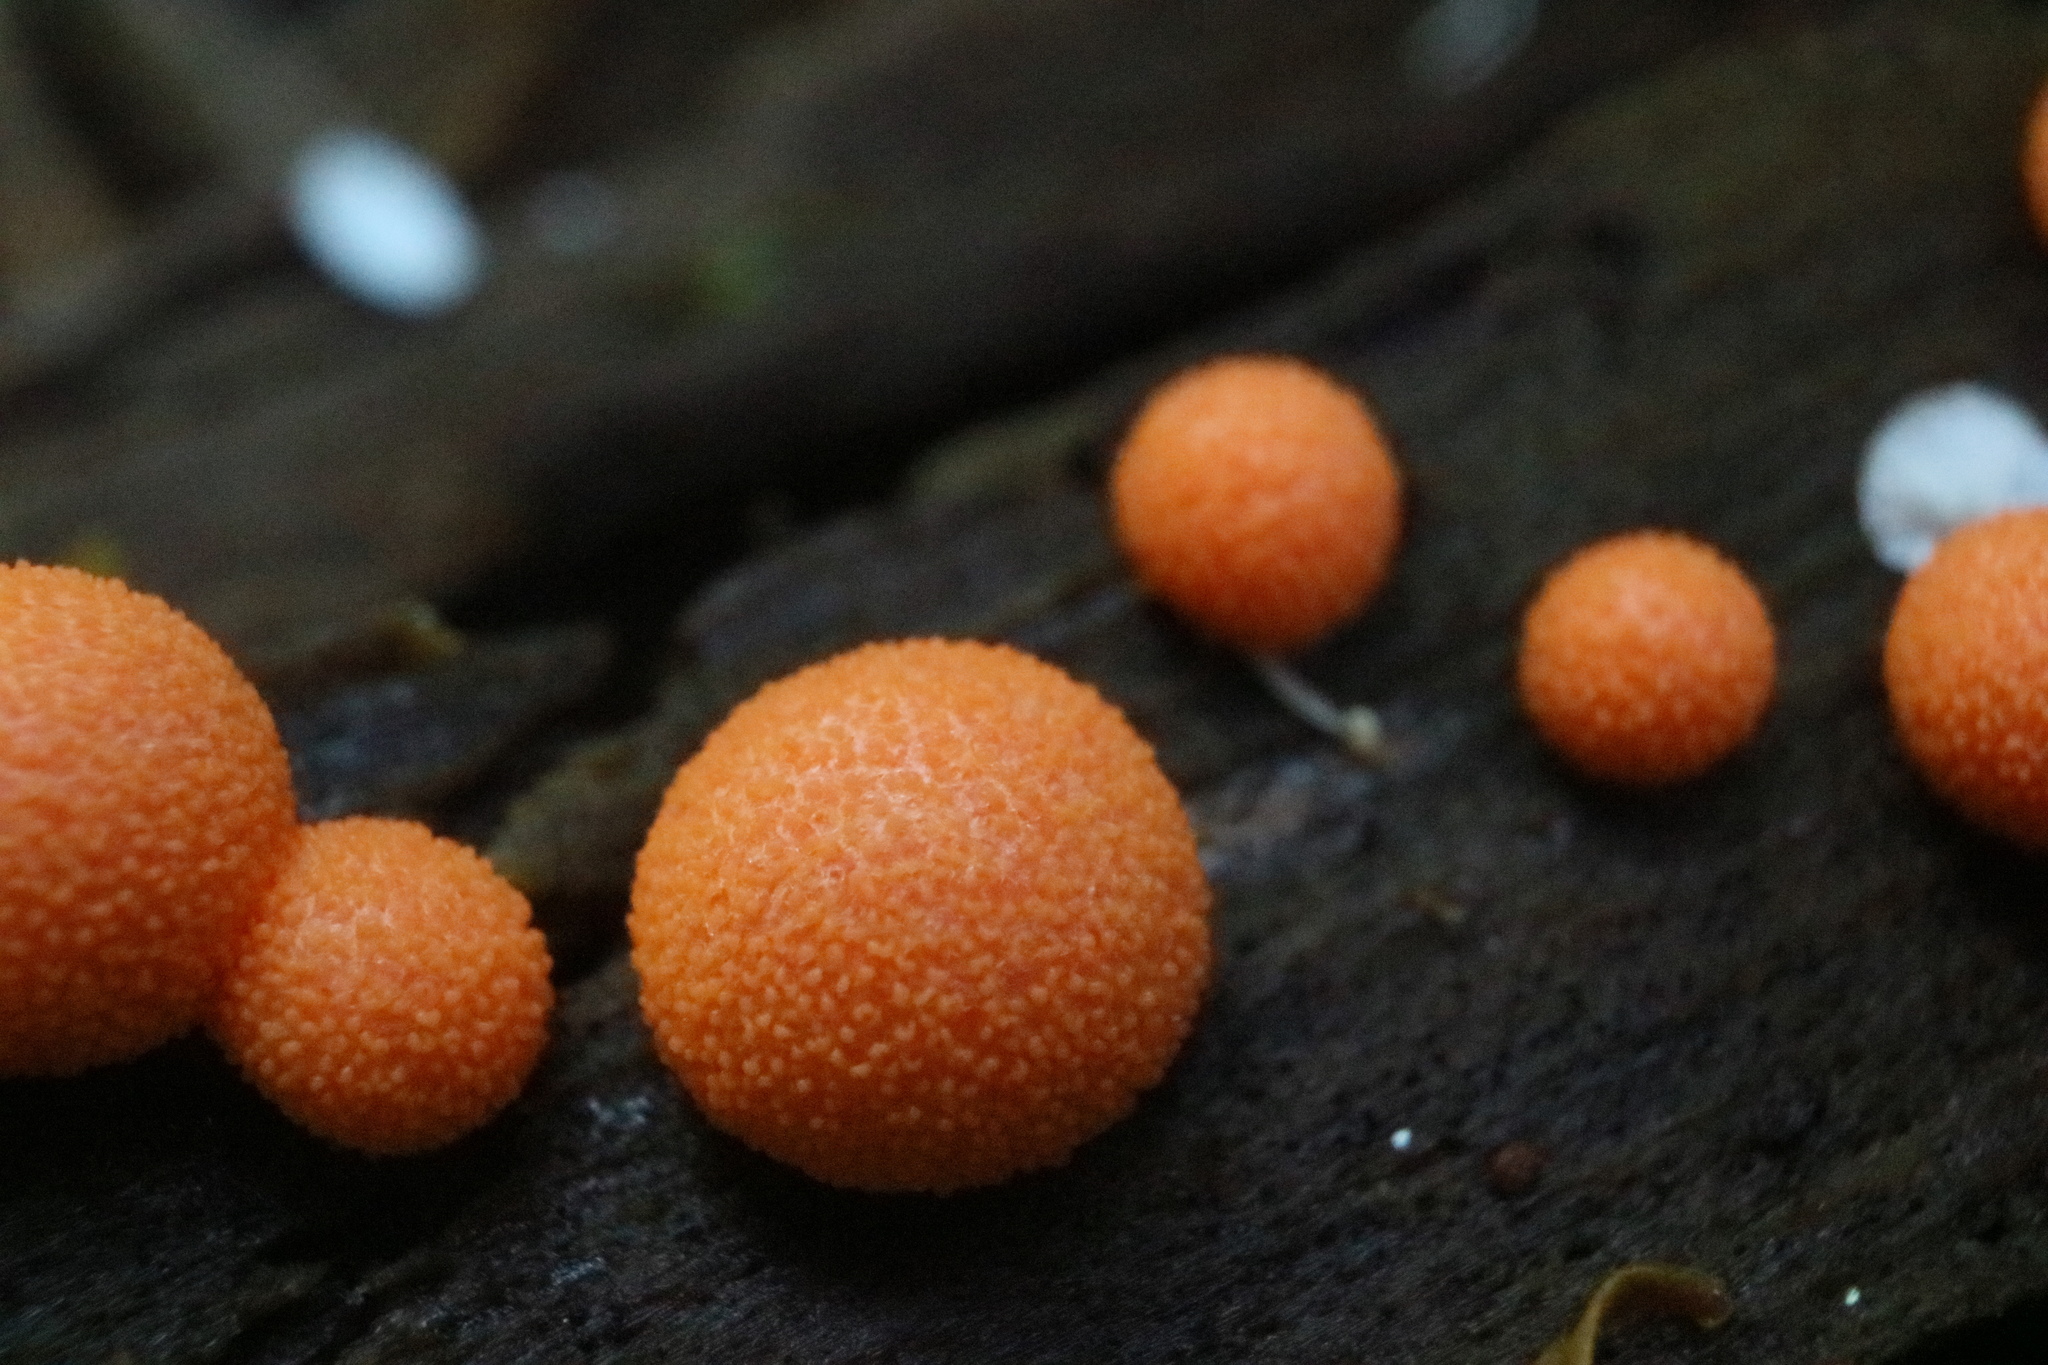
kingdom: Protozoa
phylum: Mycetozoa
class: Myxomycetes
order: Cribrariales
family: Tubiferaceae
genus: Lycogala
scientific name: Lycogala epidendrum
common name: Wolf's milk
